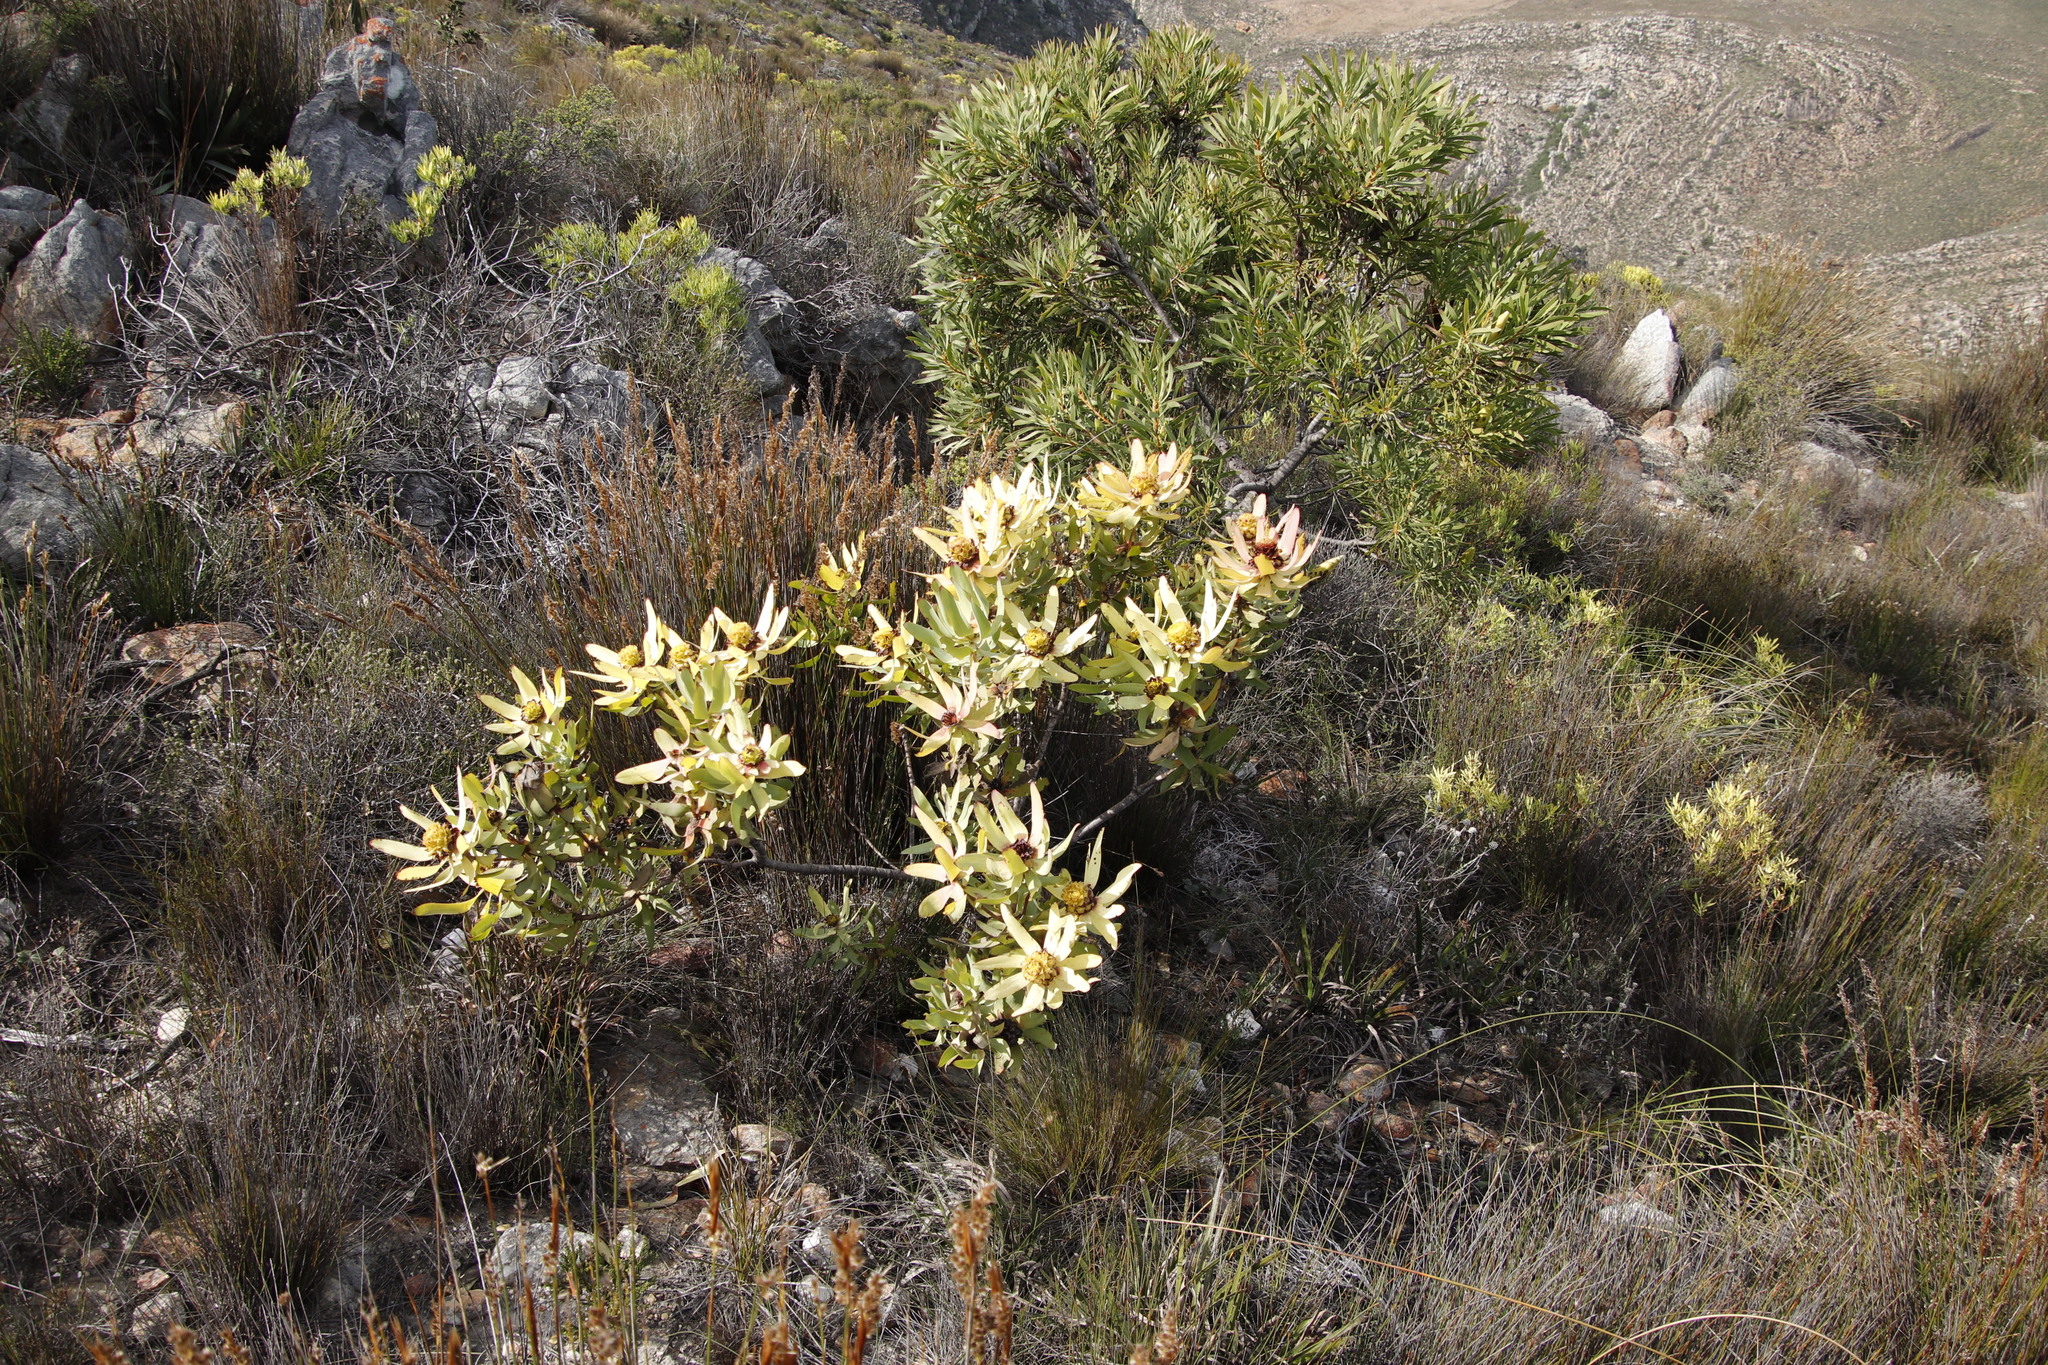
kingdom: Plantae
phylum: Tracheophyta
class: Magnoliopsida
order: Proteales
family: Proteaceae
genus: Leucadendron
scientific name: Leucadendron tinctum
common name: Spicy conebush
